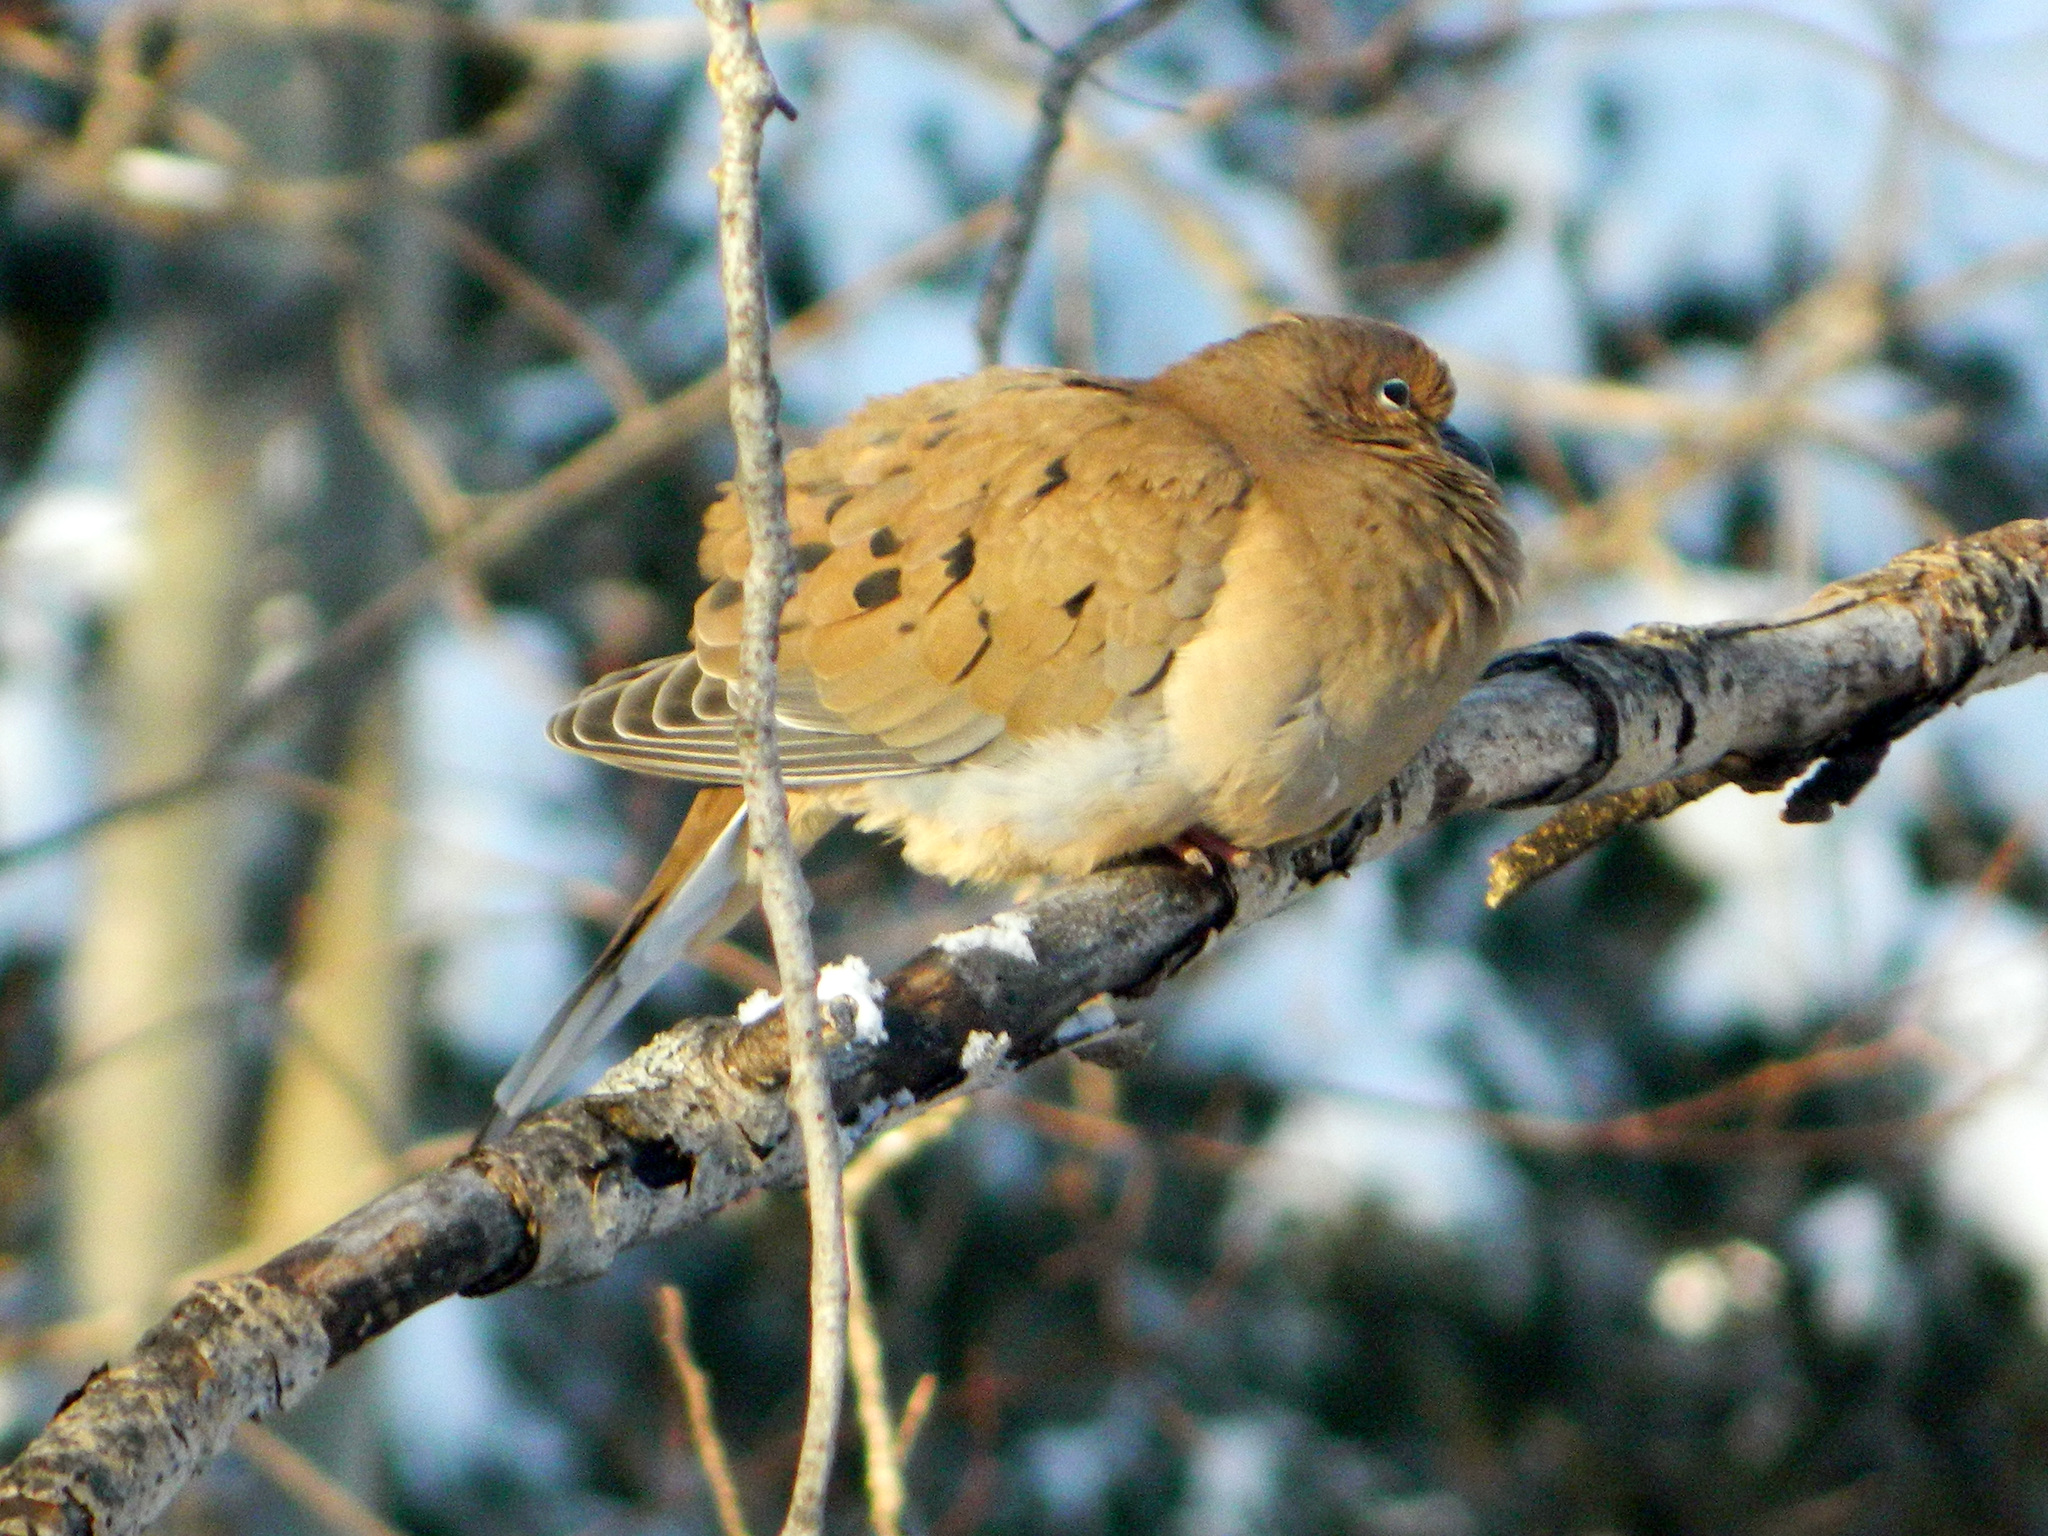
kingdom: Animalia
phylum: Chordata
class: Aves
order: Columbiformes
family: Columbidae
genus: Zenaida
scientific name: Zenaida macroura
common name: Mourning dove
